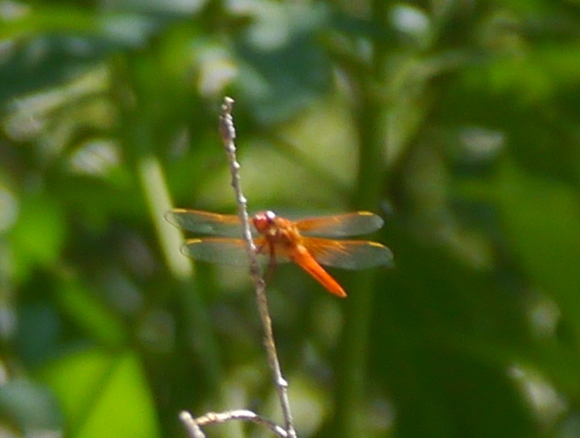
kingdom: Animalia
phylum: Arthropoda
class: Insecta
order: Odonata
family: Libellulidae
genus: Libellula
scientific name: Libellula croceipennis
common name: Neon skimmer
